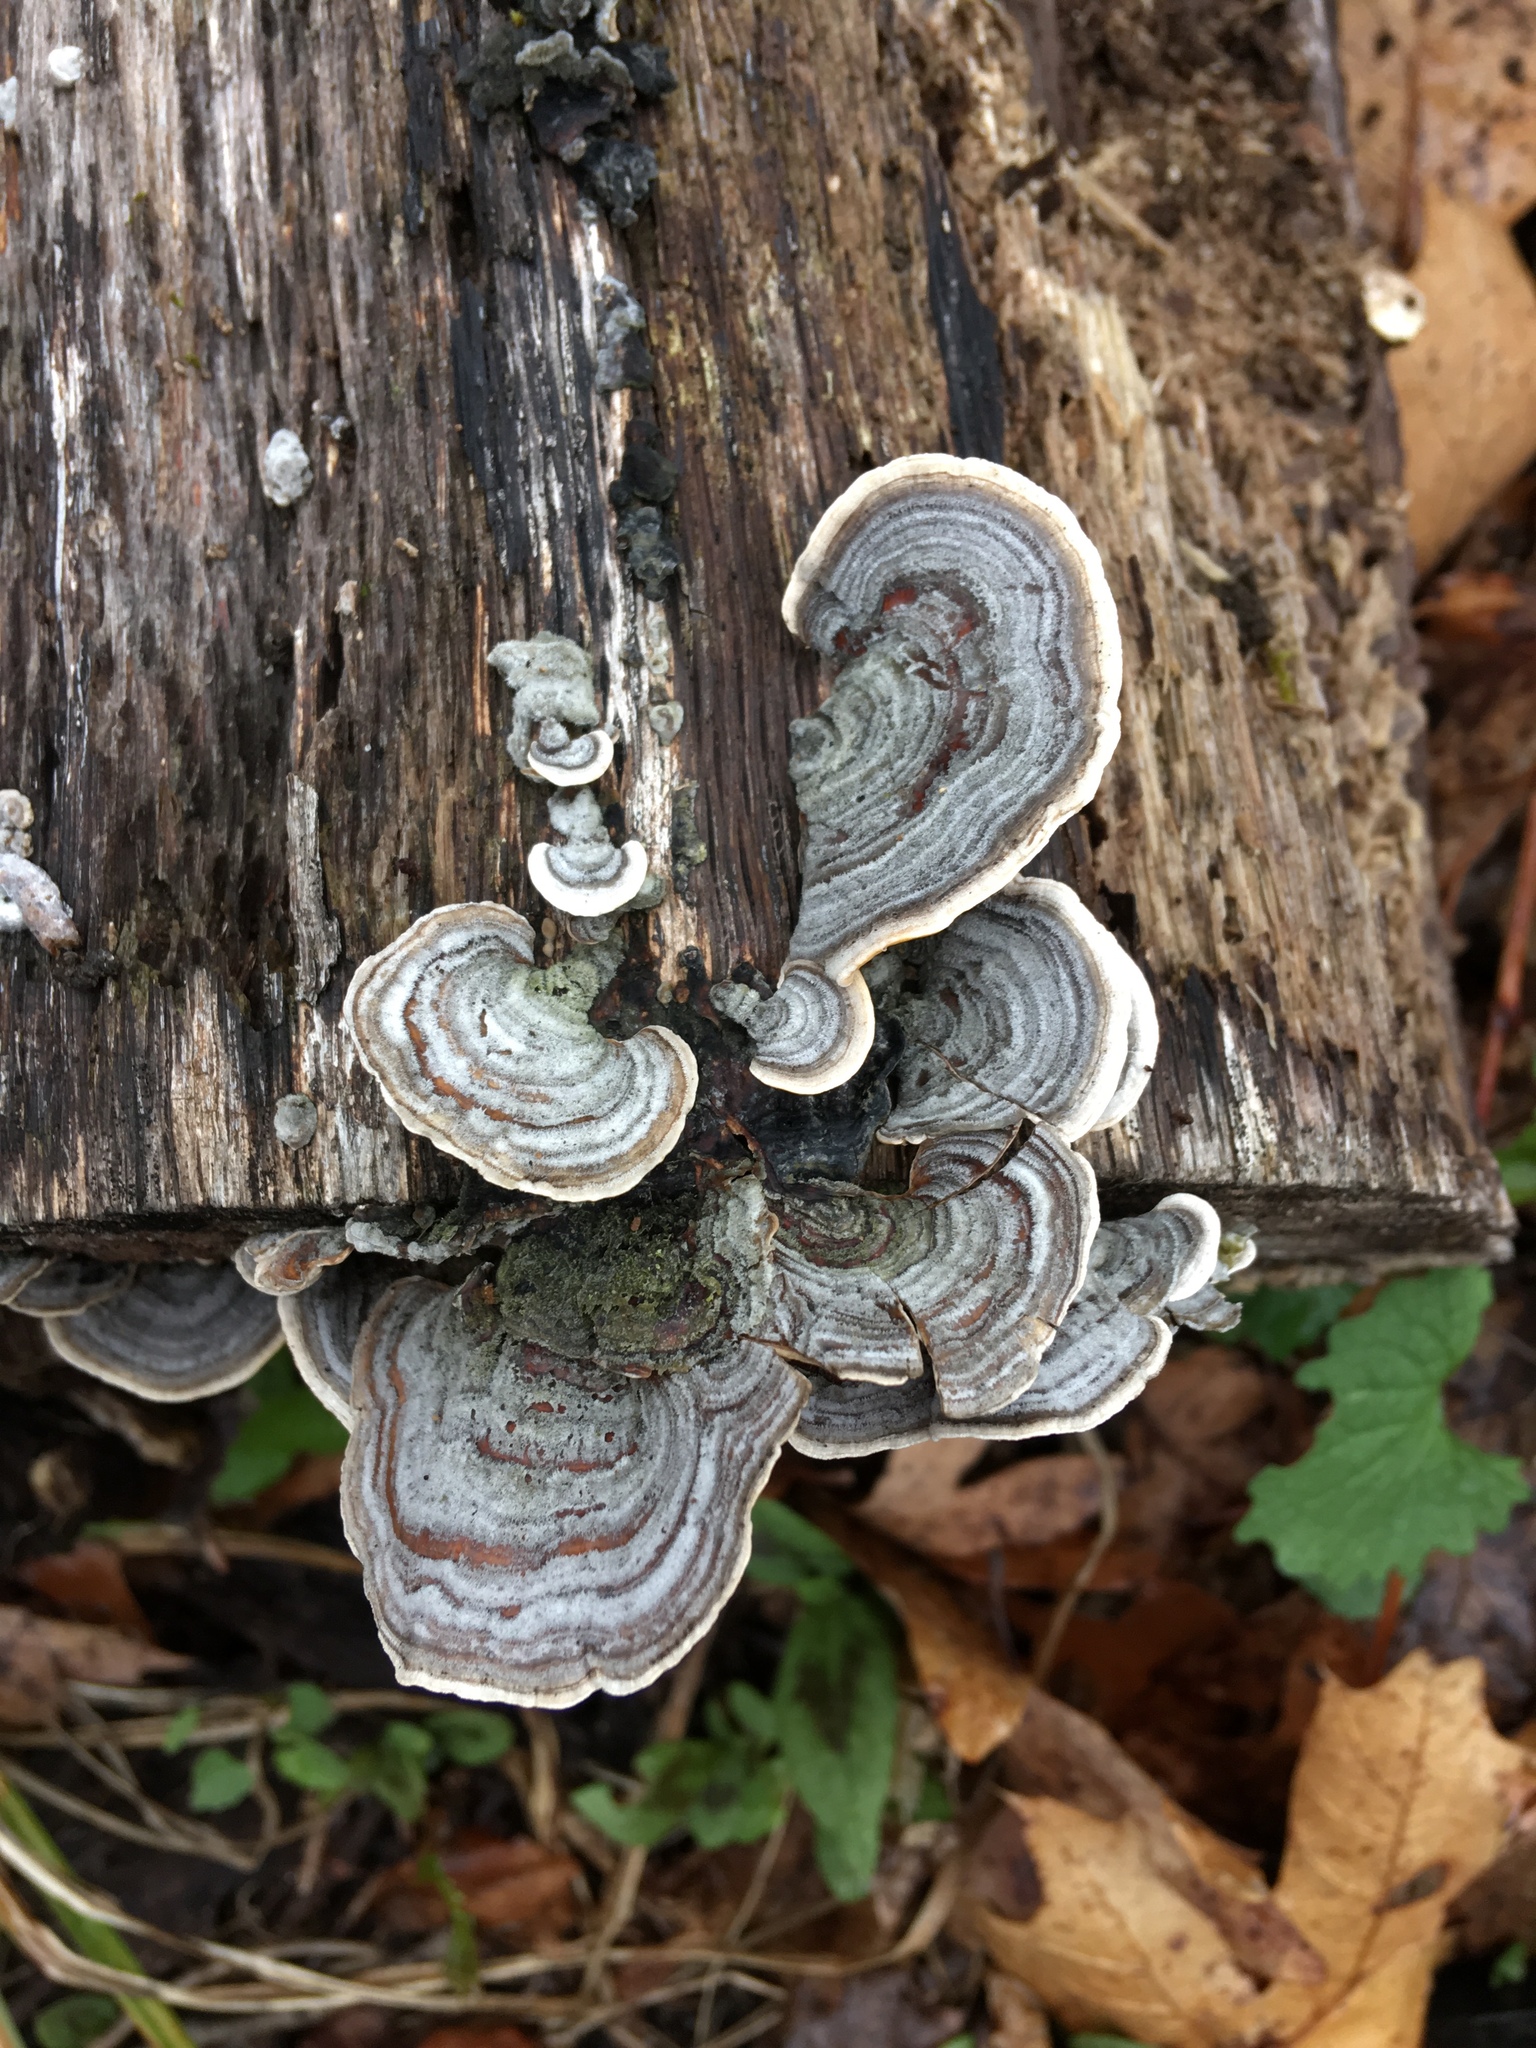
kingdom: Fungi
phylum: Basidiomycota
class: Agaricomycetes
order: Polyporales
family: Polyporaceae
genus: Trametes
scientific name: Trametes versicolor
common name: Turkeytail
